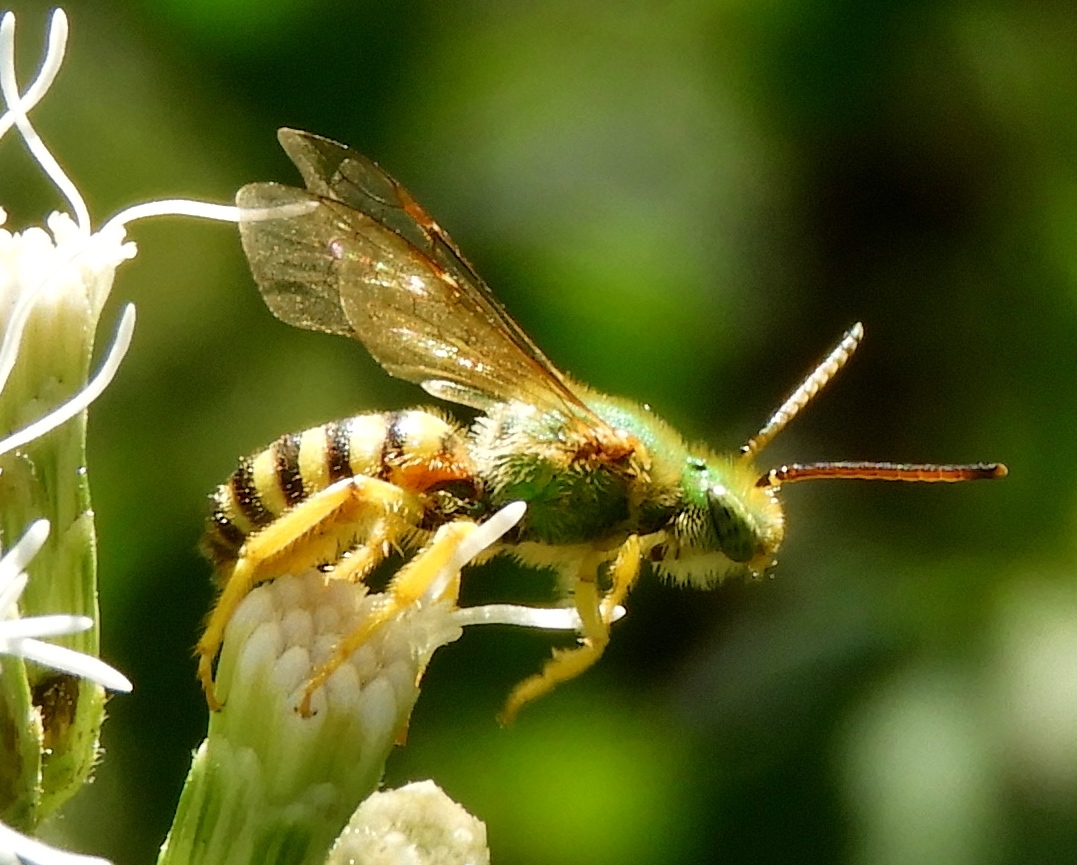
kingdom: Animalia
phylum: Arthropoda
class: Insecta
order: Hymenoptera
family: Halictidae
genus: Agapostemon
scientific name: Agapostemon nasutus
